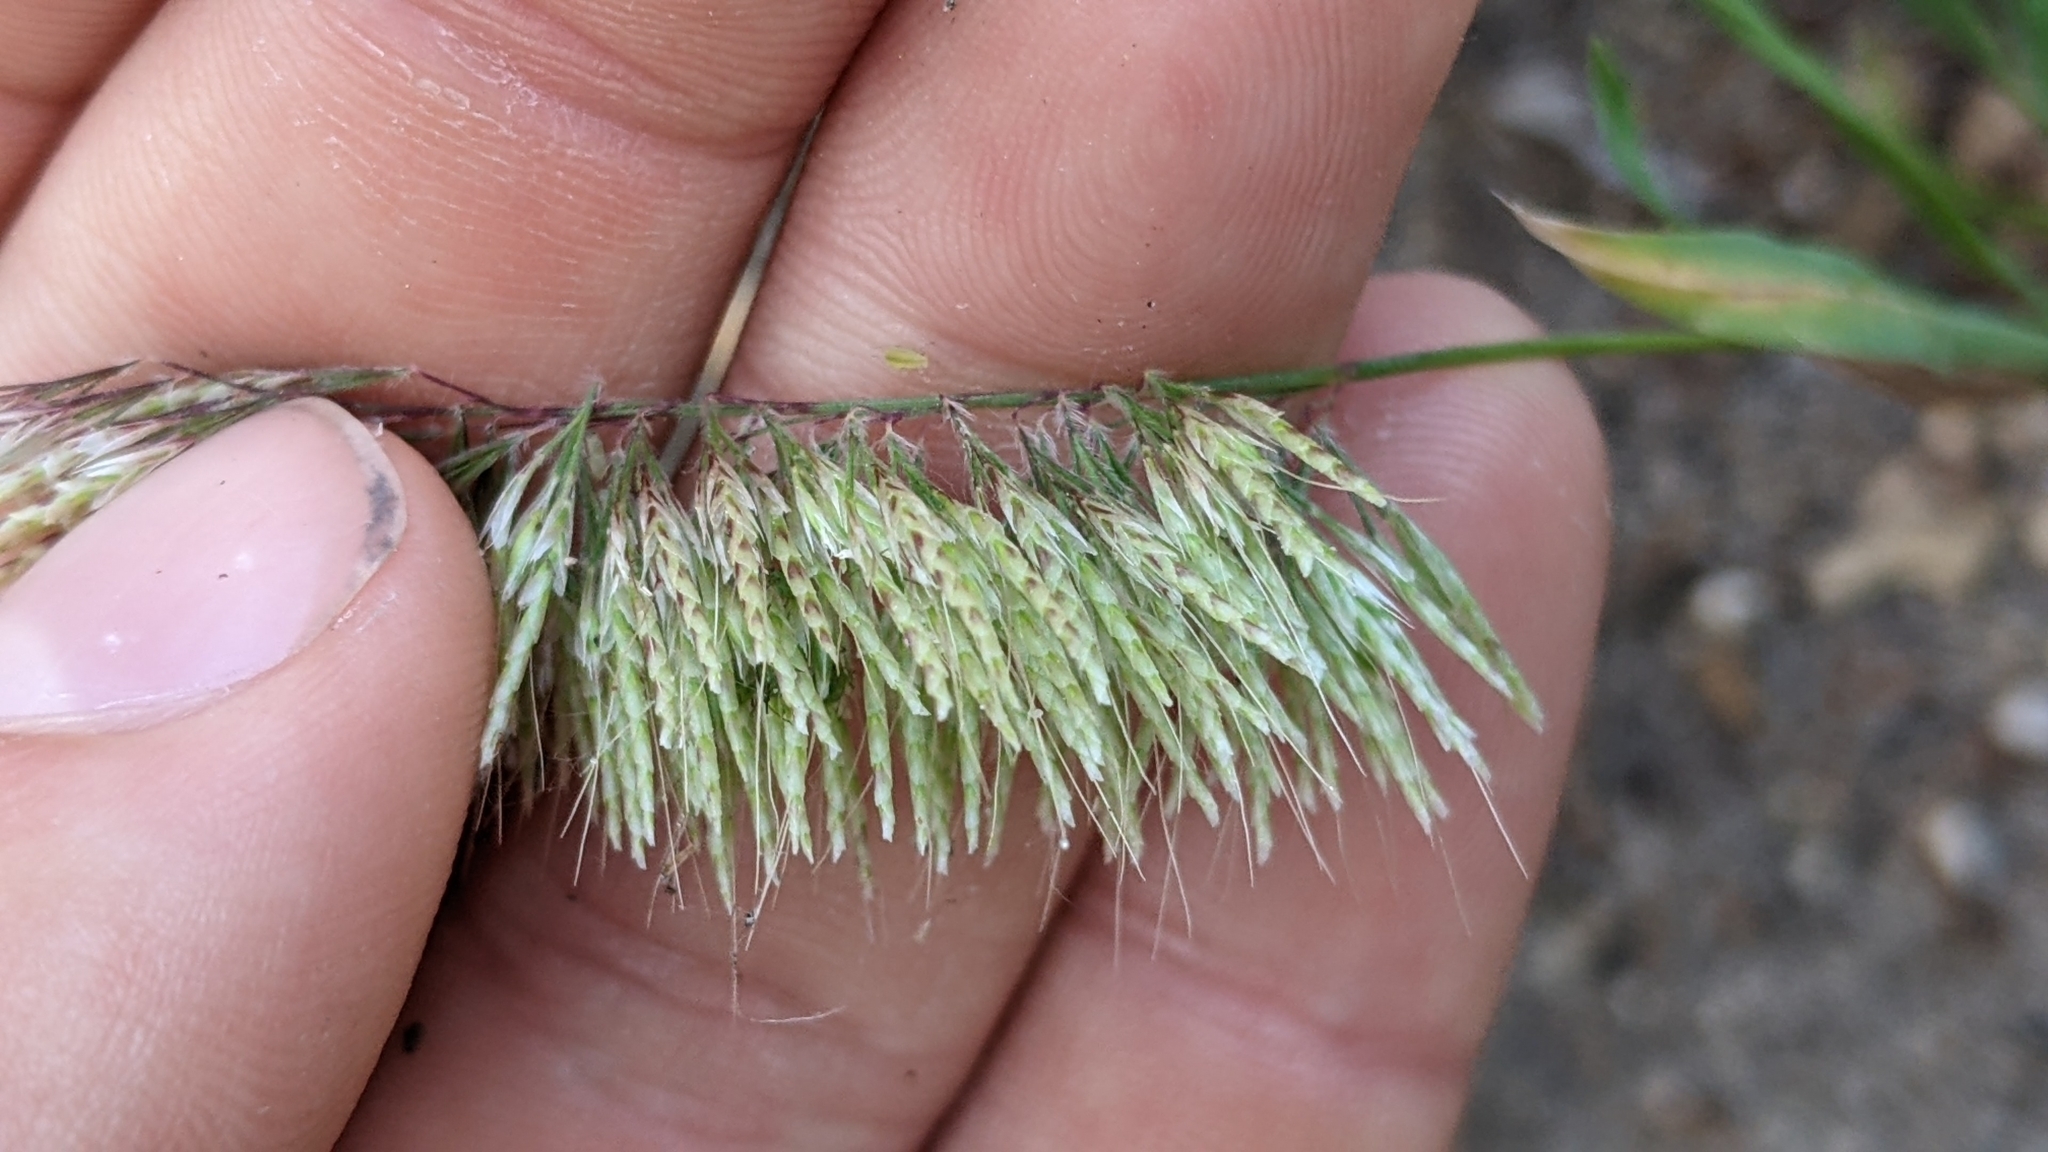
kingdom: Plantae
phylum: Tracheophyta
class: Liliopsida
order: Poales
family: Poaceae
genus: Lamarckia
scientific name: Lamarckia aurea
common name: Golden dog's-tail
